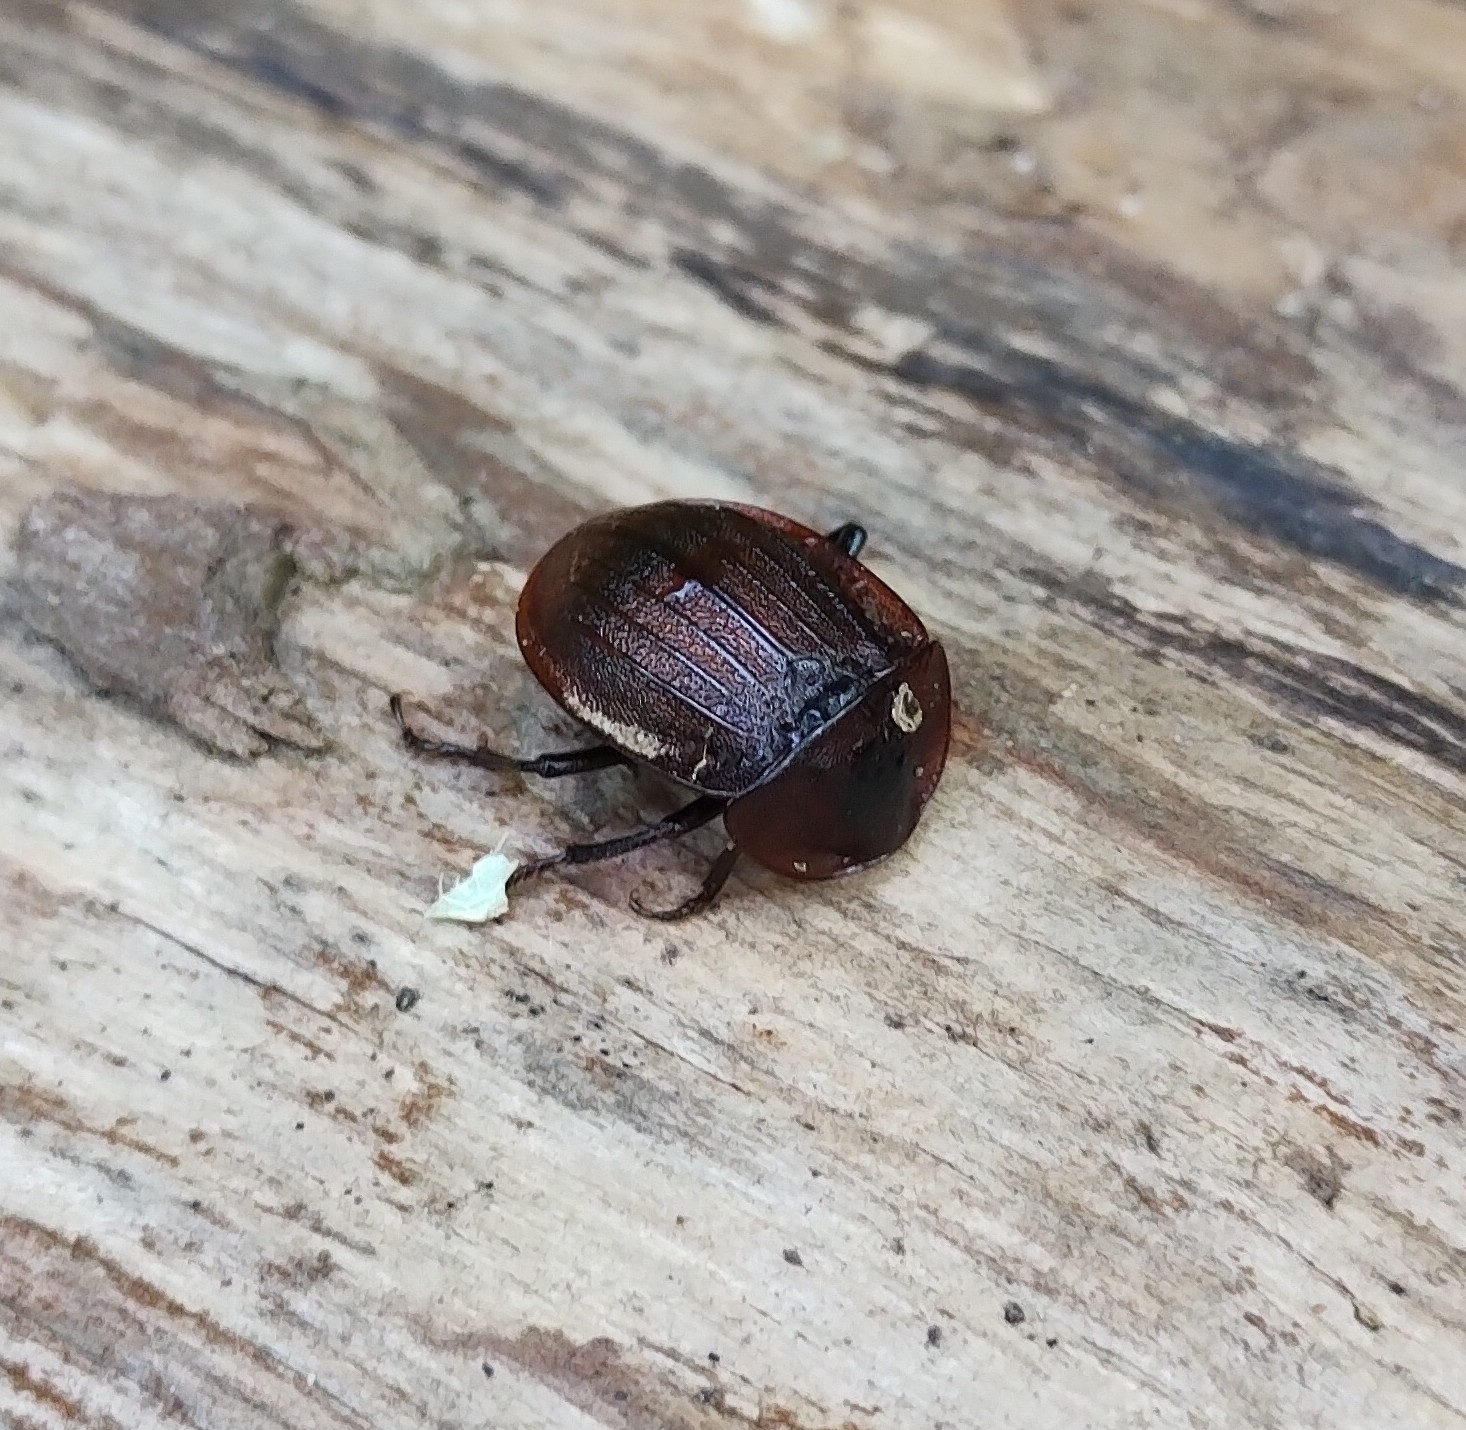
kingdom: Animalia
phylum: Arthropoda
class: Insecta
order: Coleoptera
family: Staphylinidae
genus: Silpha
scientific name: Silpha atrata
